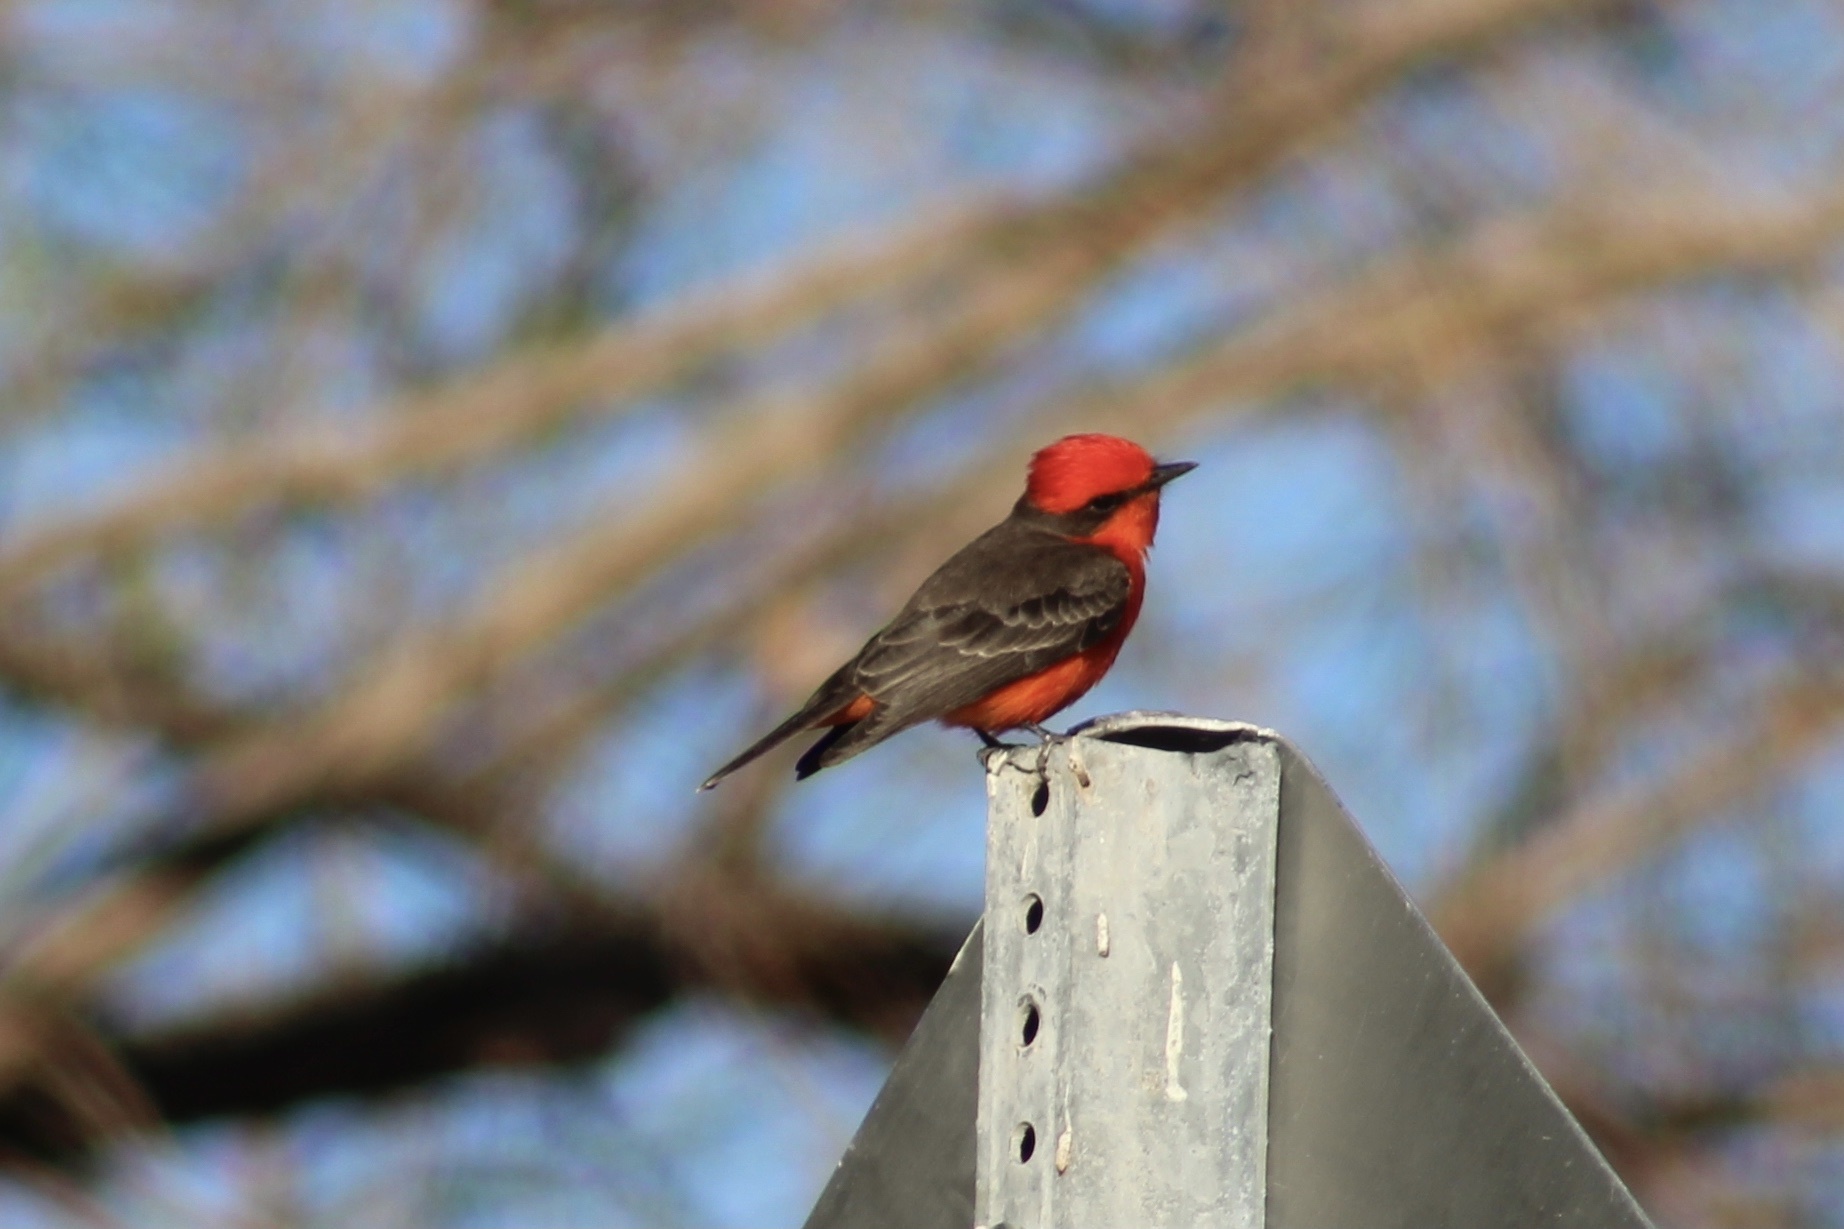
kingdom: Animalia
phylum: Chordata
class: Aves
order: Passeriformes
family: Tyrannidae
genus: Pyrocephalus
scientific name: Pyrocephalus rubinus
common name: Vermilion flycatcher
